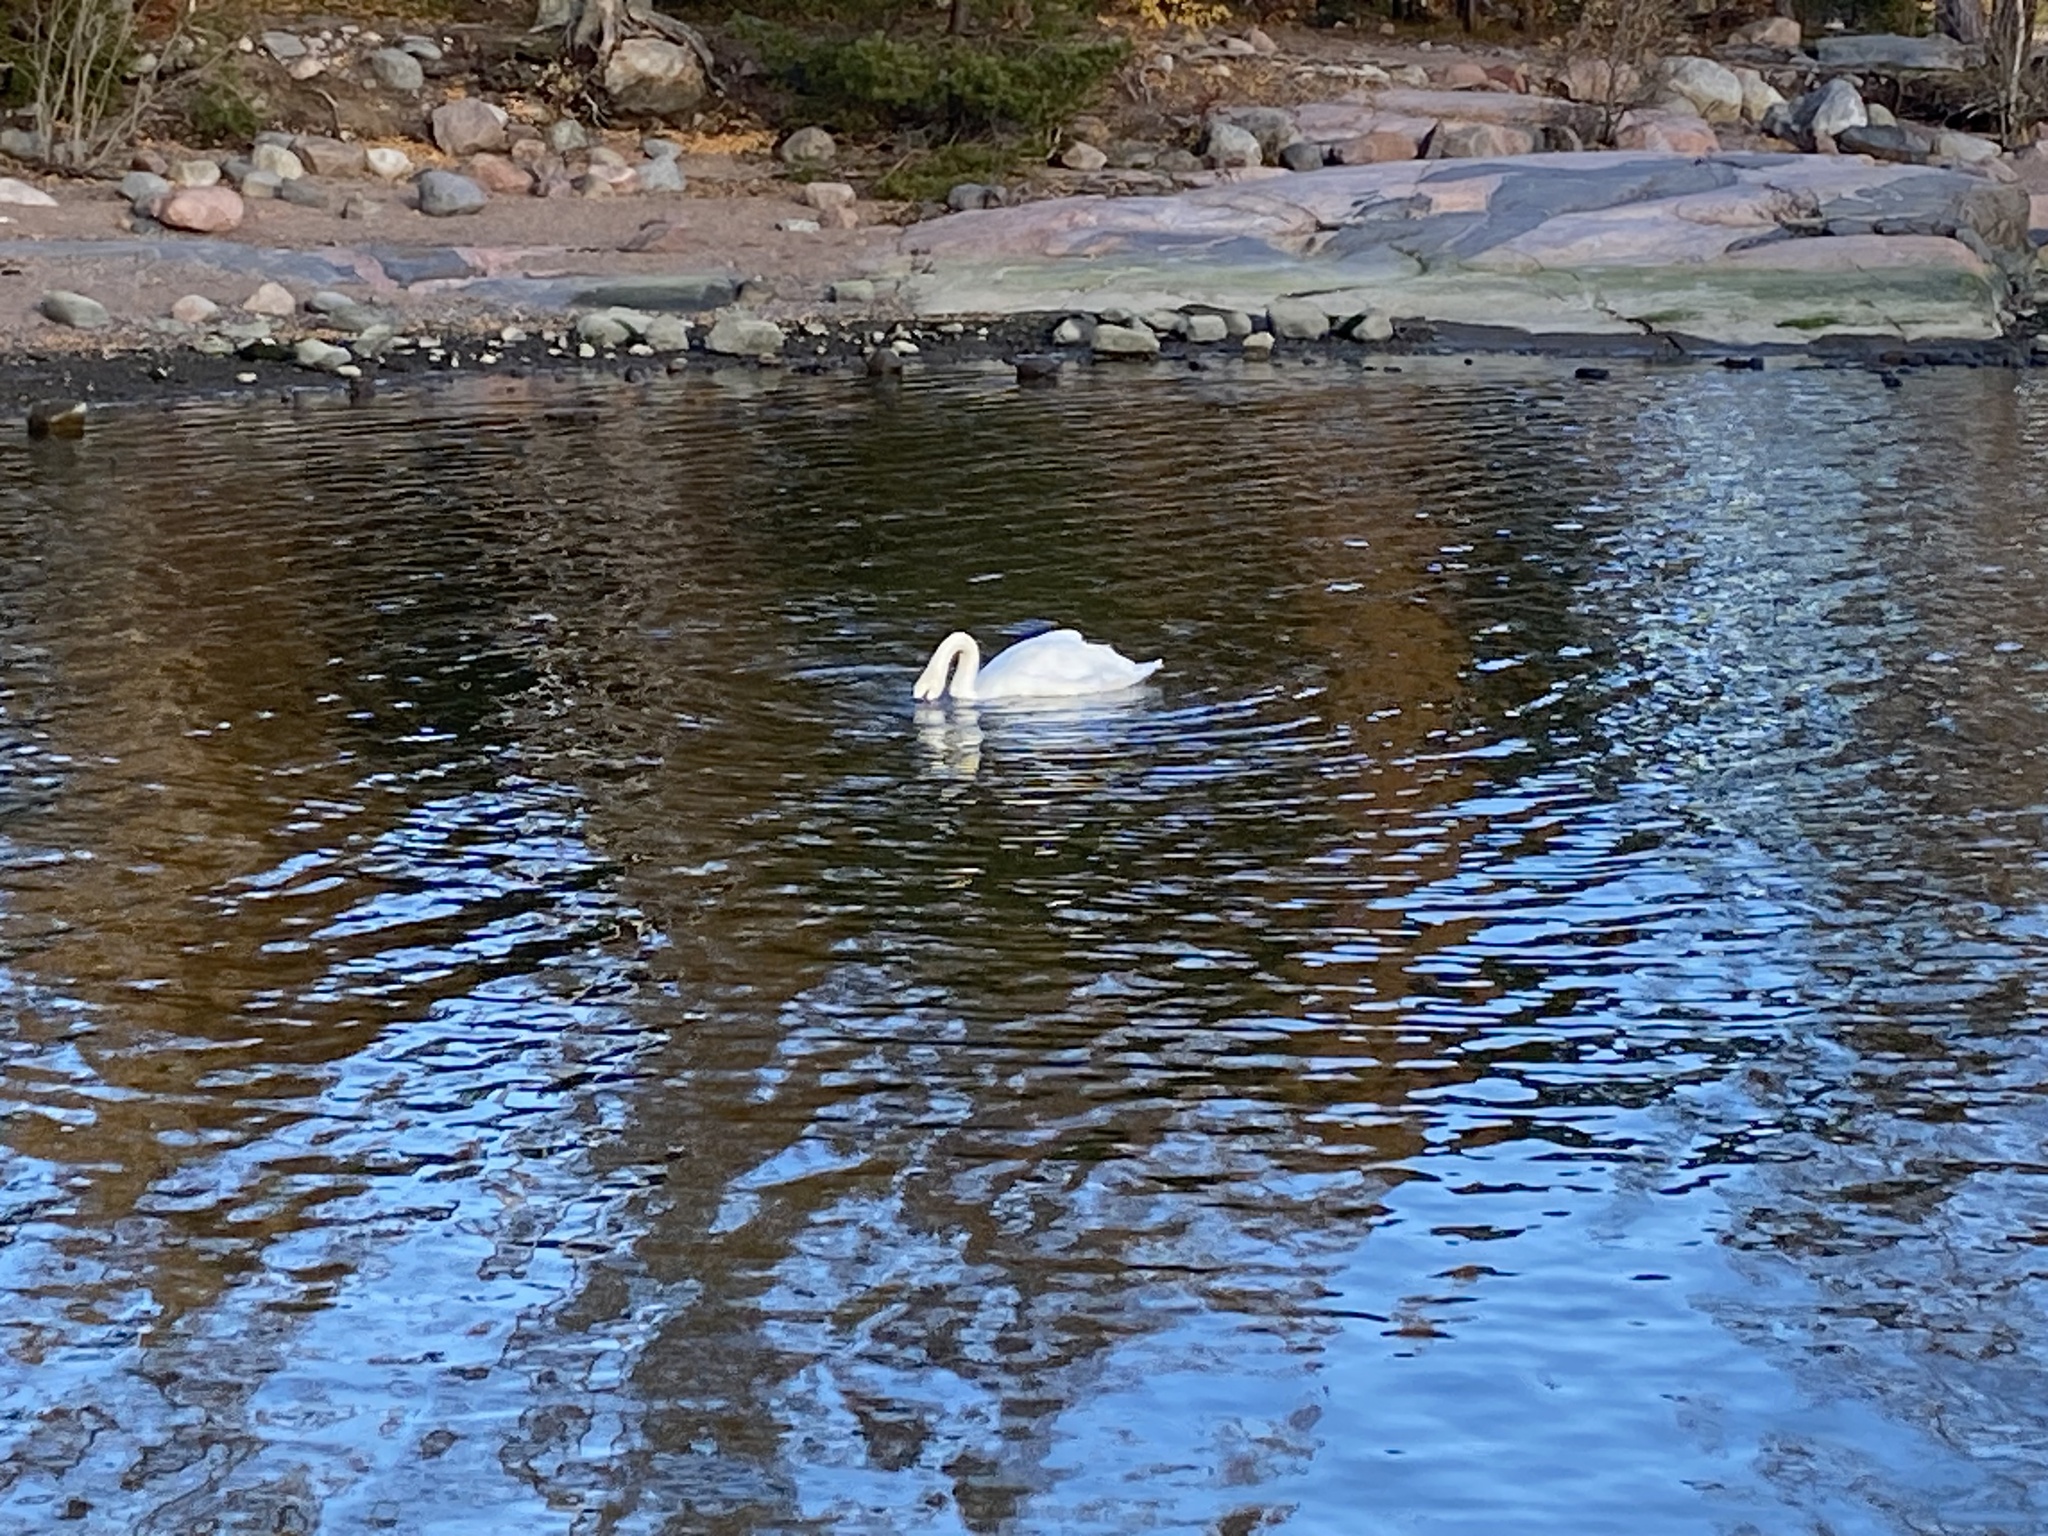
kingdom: Animalia
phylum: Chordata
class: Aves
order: Anseriformes
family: Anatidae
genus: Cygnus
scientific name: Cygnus olor
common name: Mute swan
